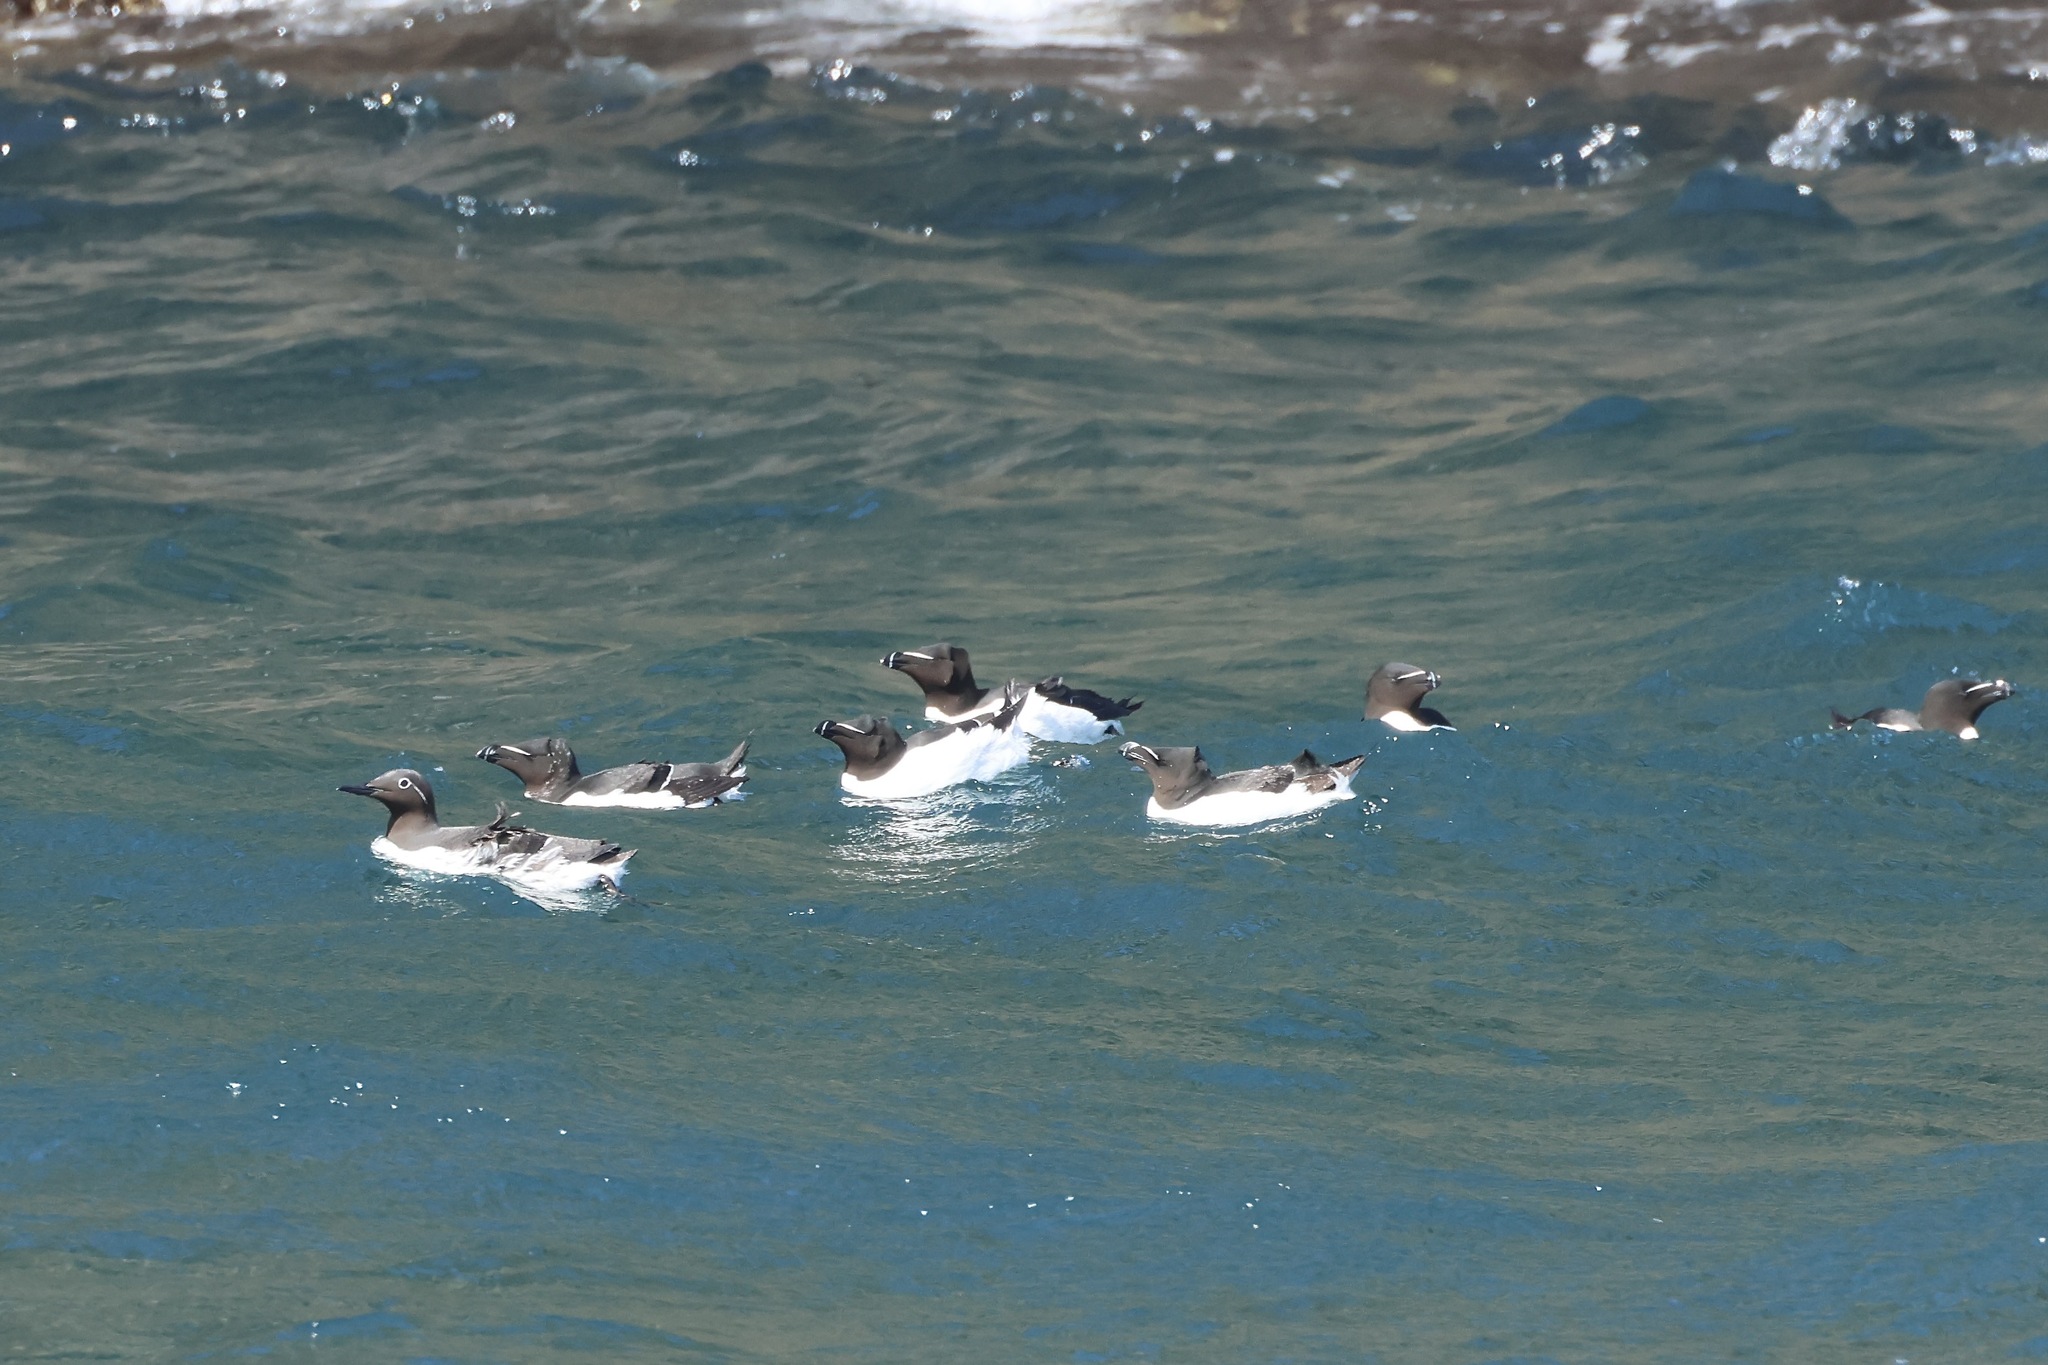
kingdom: Animalia
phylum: Chordata
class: Aves
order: Charadriiformes
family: Alcidae
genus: Alca
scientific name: Alca torda
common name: Razorbill
